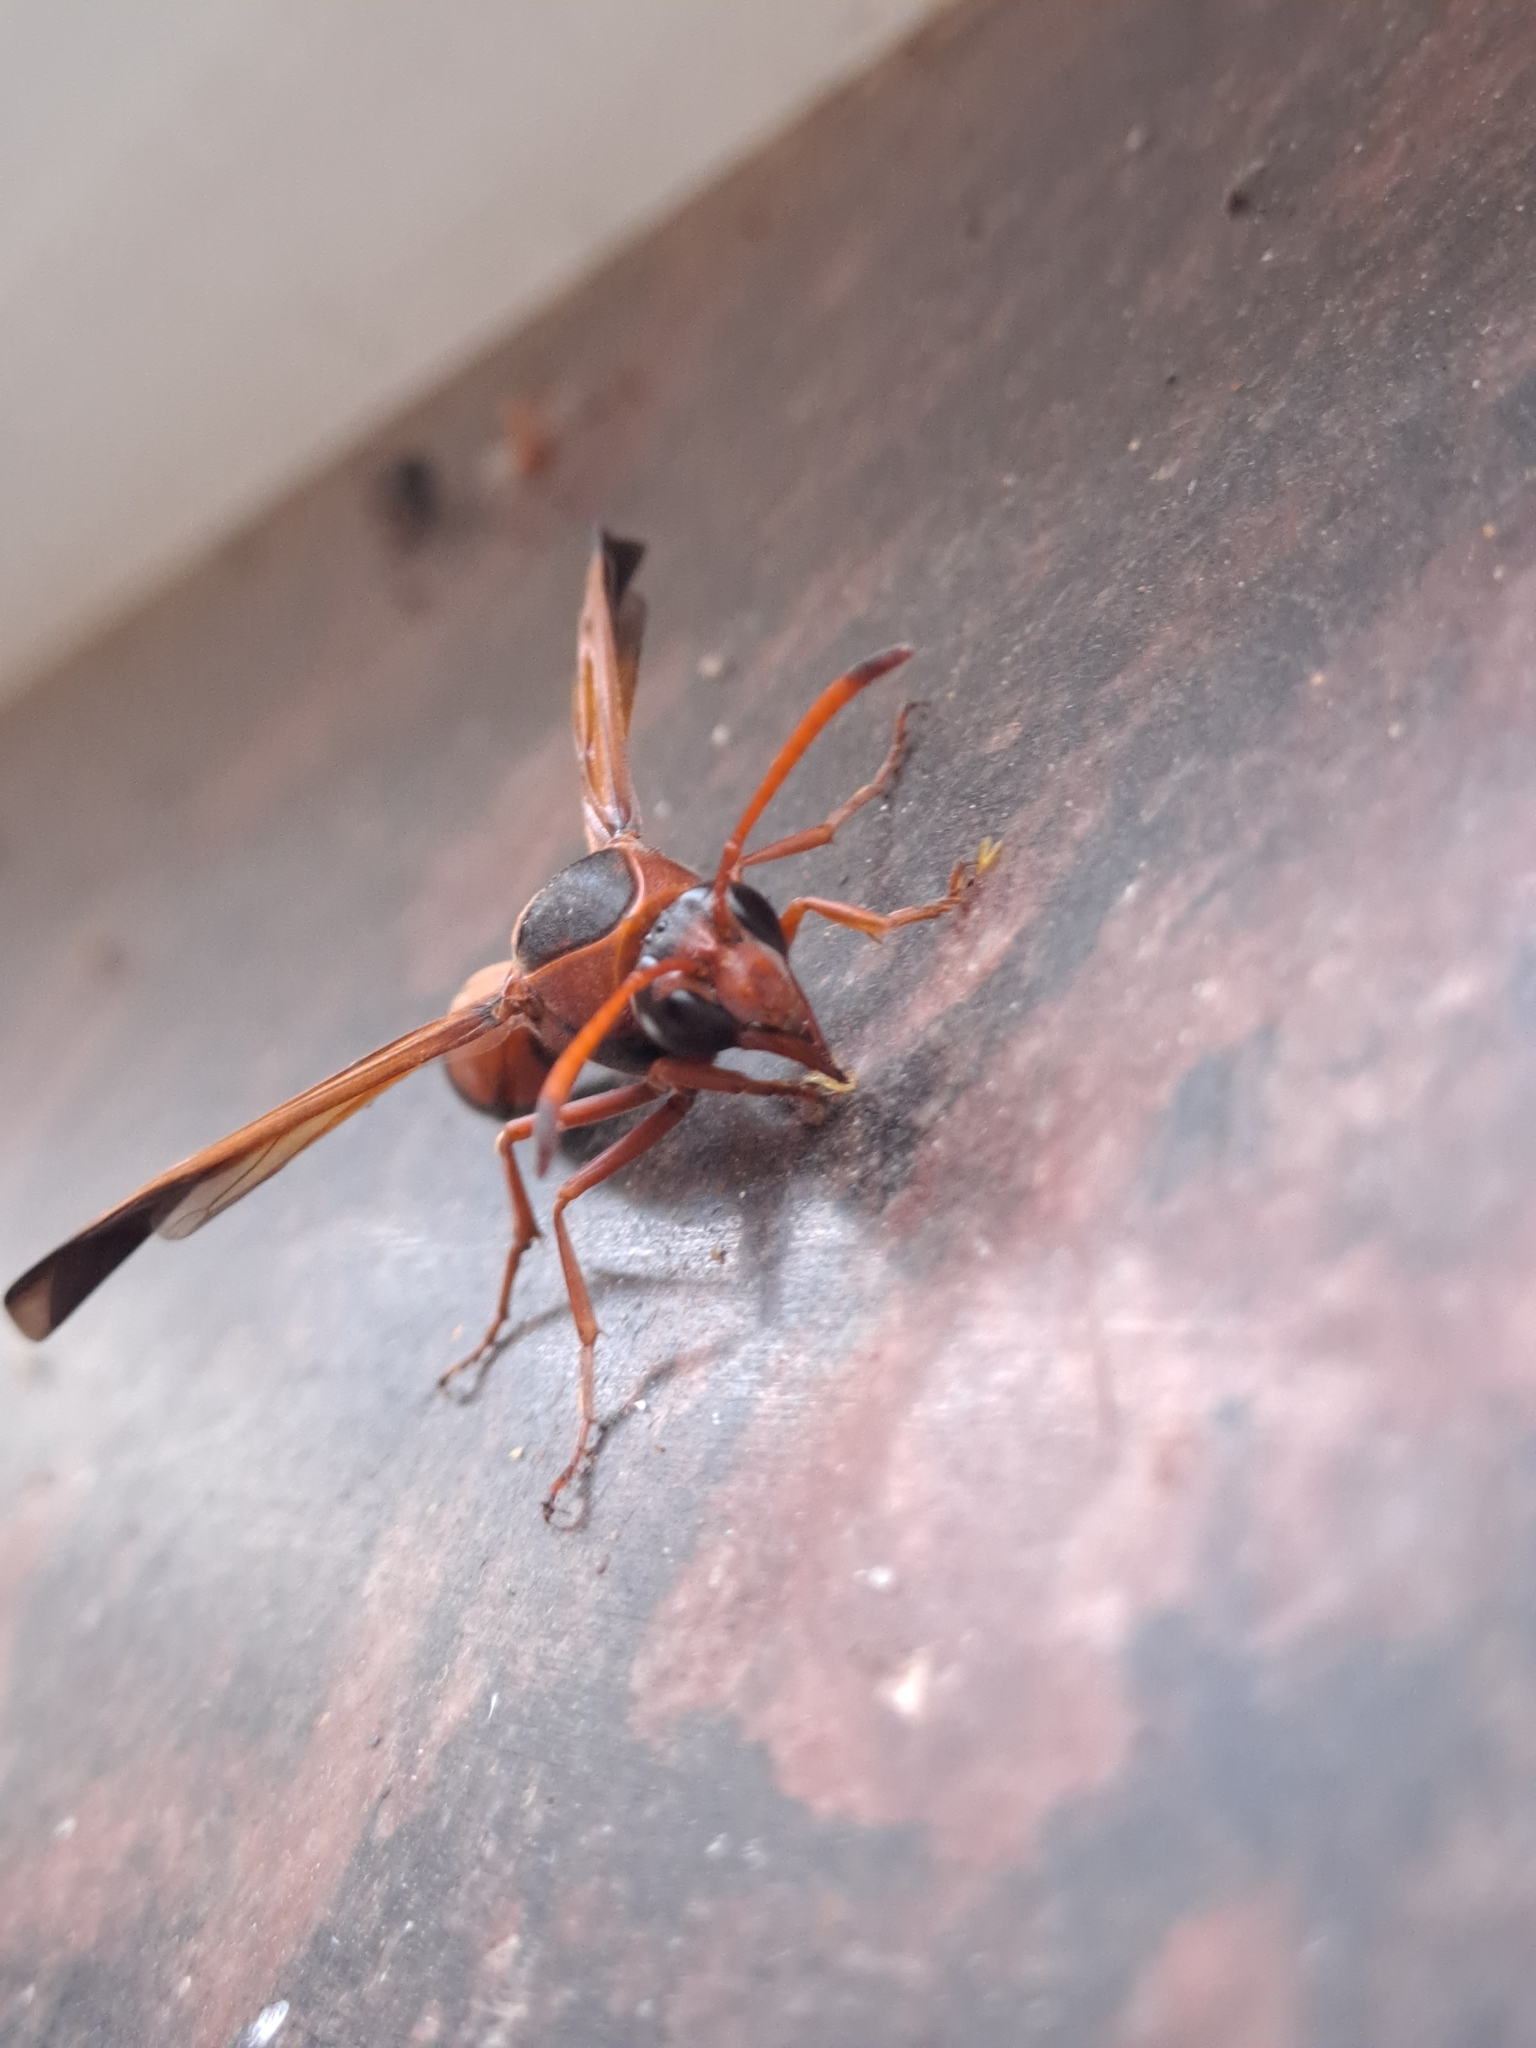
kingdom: Animalia
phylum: Arthropoda
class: Insecta
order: Hymenoptera
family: Eumenidae
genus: Delta
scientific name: Delta dimidiatipenne
